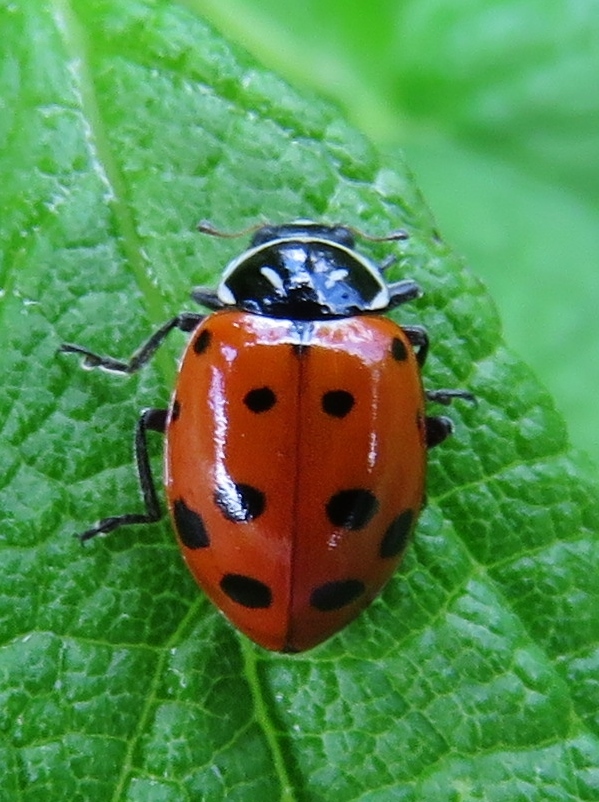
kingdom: Animalia
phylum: Arthropoda
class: Insecta
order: Coleoptera
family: Coccinellidae
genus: Hippodamia
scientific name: Hippodamia convergens
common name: Convergent lady beetle
